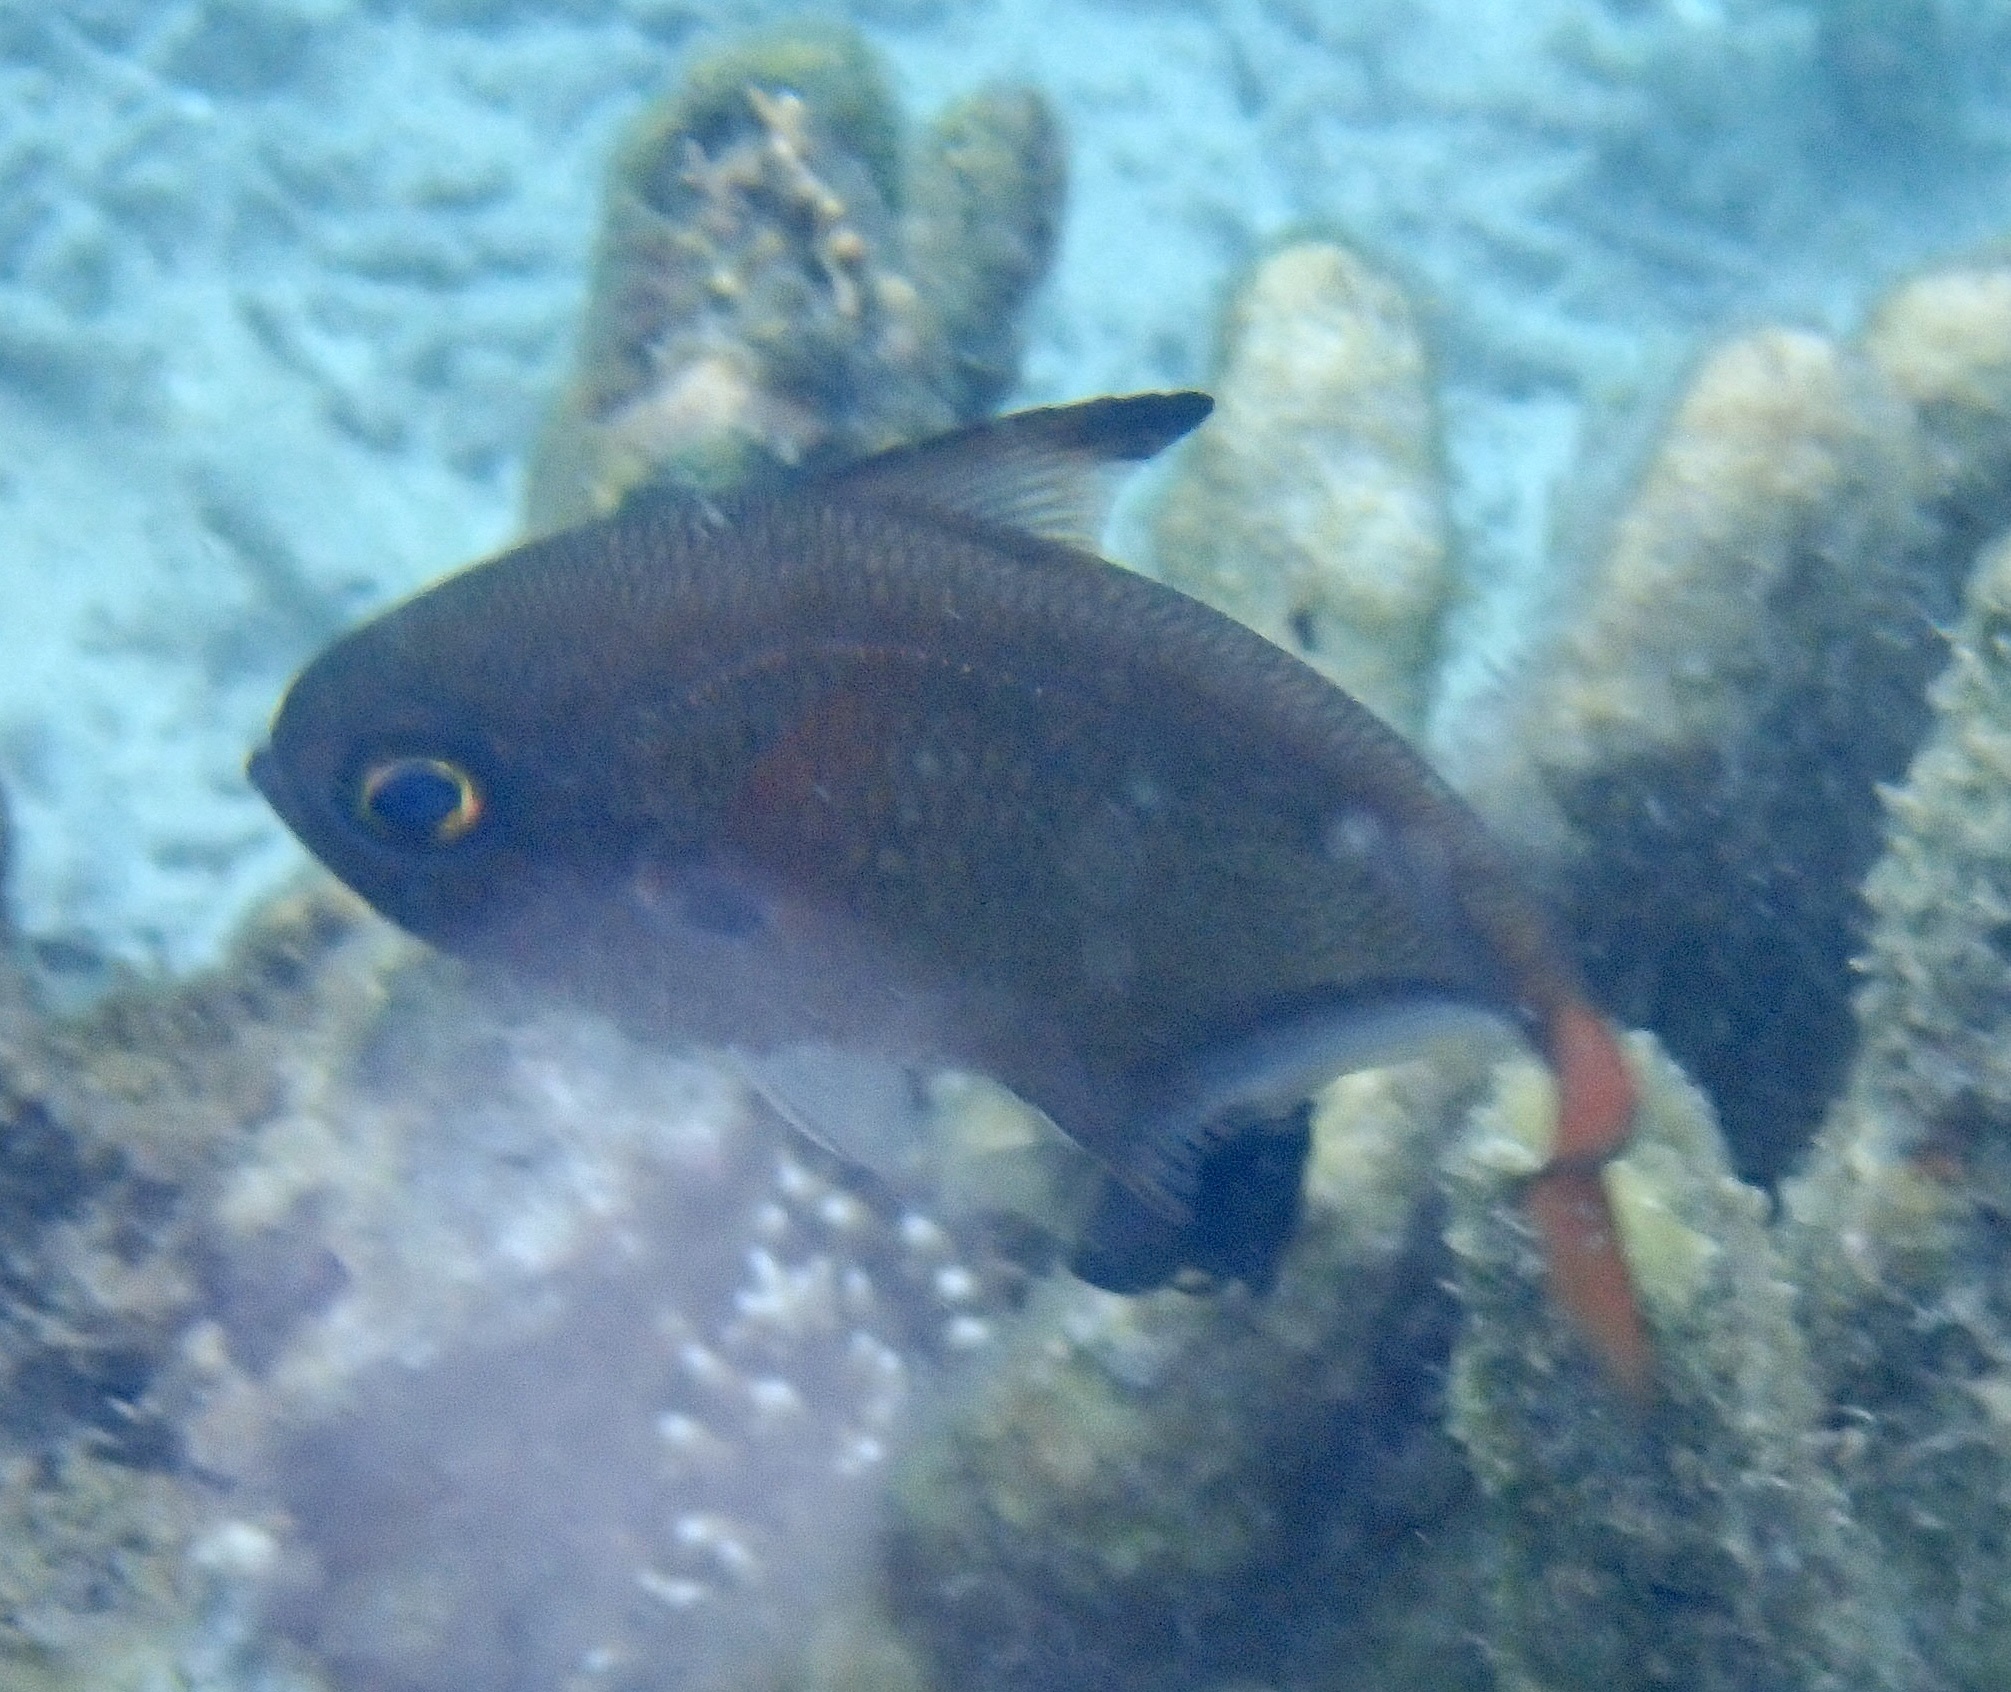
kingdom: Animalia
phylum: Chordata
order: Perciformes
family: Pempheridae
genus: Pempheris
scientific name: Pempheris oualensis
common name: Bronze sweeper
